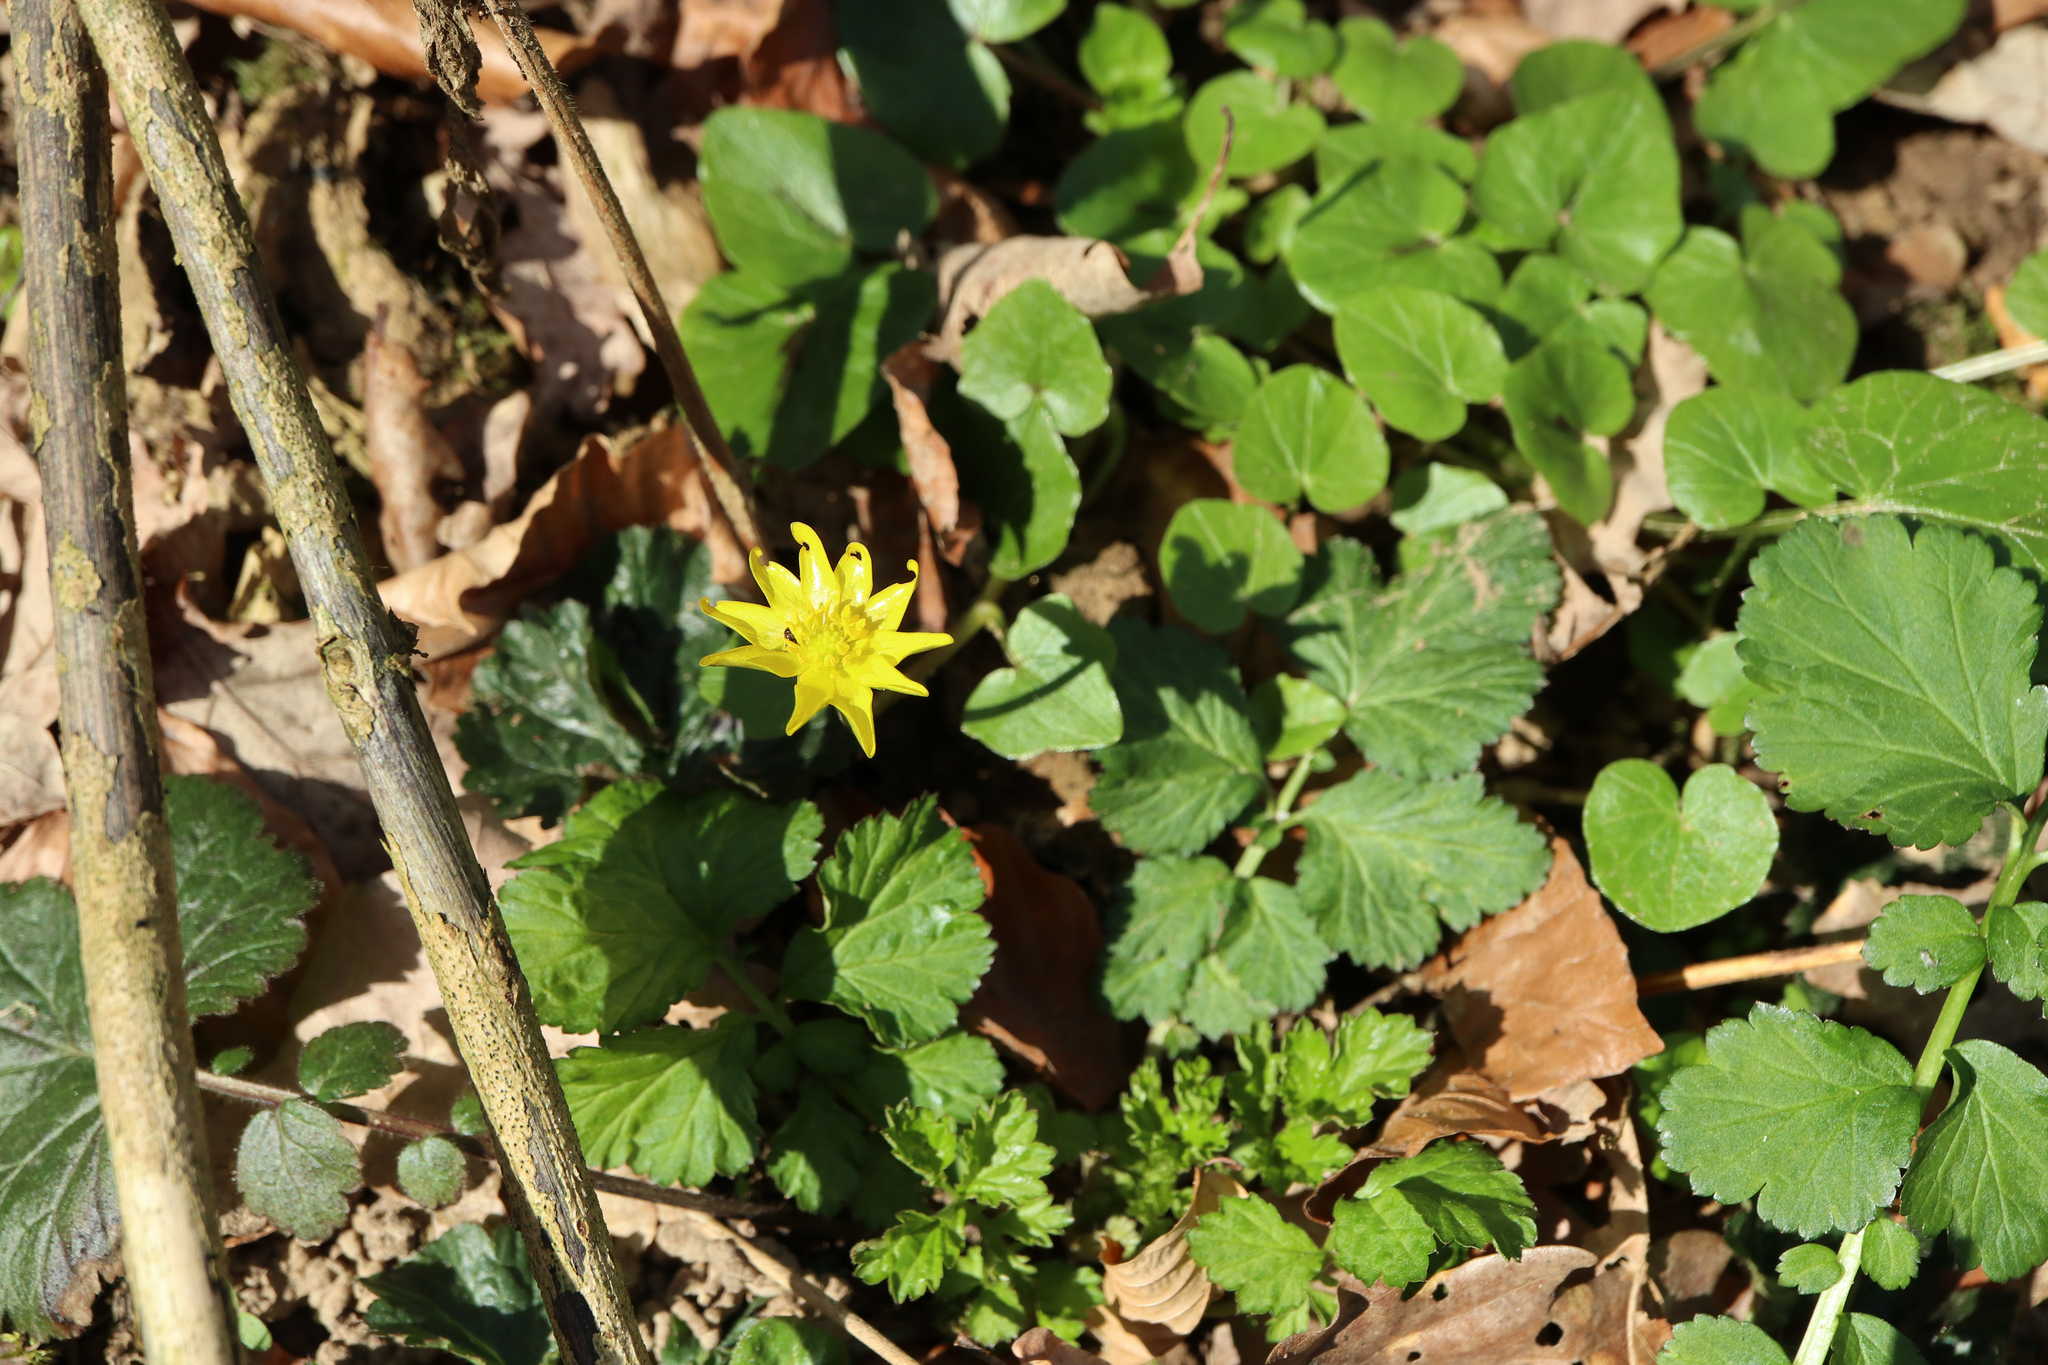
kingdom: Plantae
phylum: Tracheophyta
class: Magnoliopsida
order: Ranunculales
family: Ranunculaceae
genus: Ficaria
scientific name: Ficaria verna
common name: Lesser celandine
